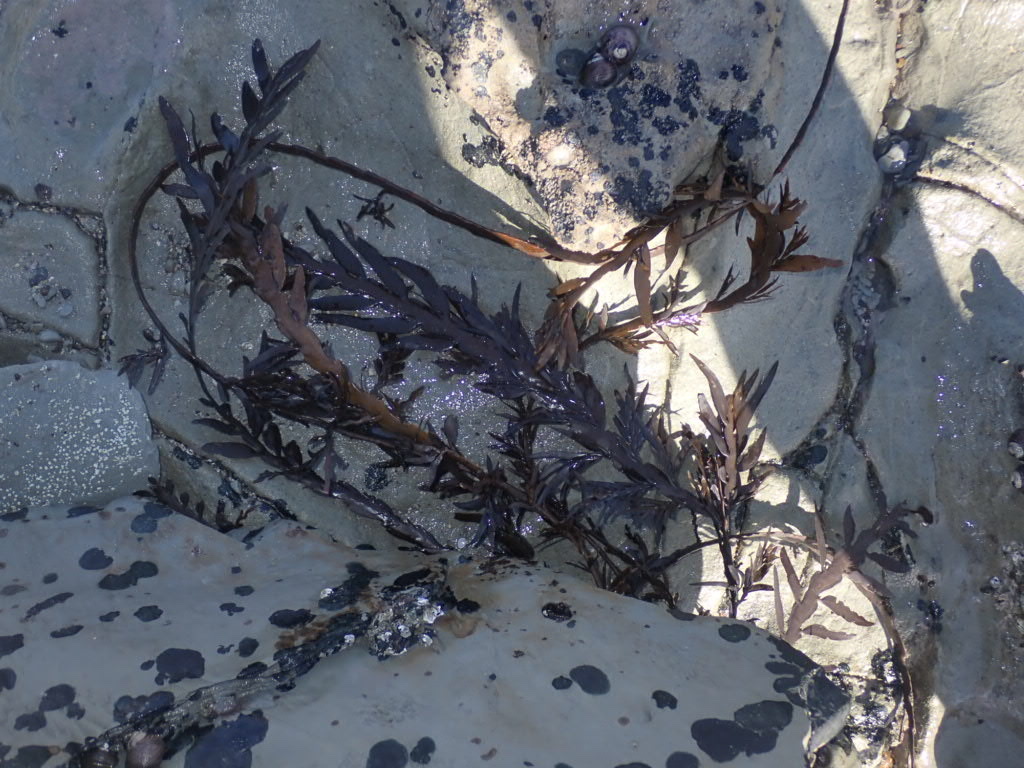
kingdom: Chromista
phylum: Ochrophyta
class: Phaeophyceae
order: Fucales
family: Sargassaceae
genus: Carpophyllum
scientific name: Carpophyllum maschalocarpum
